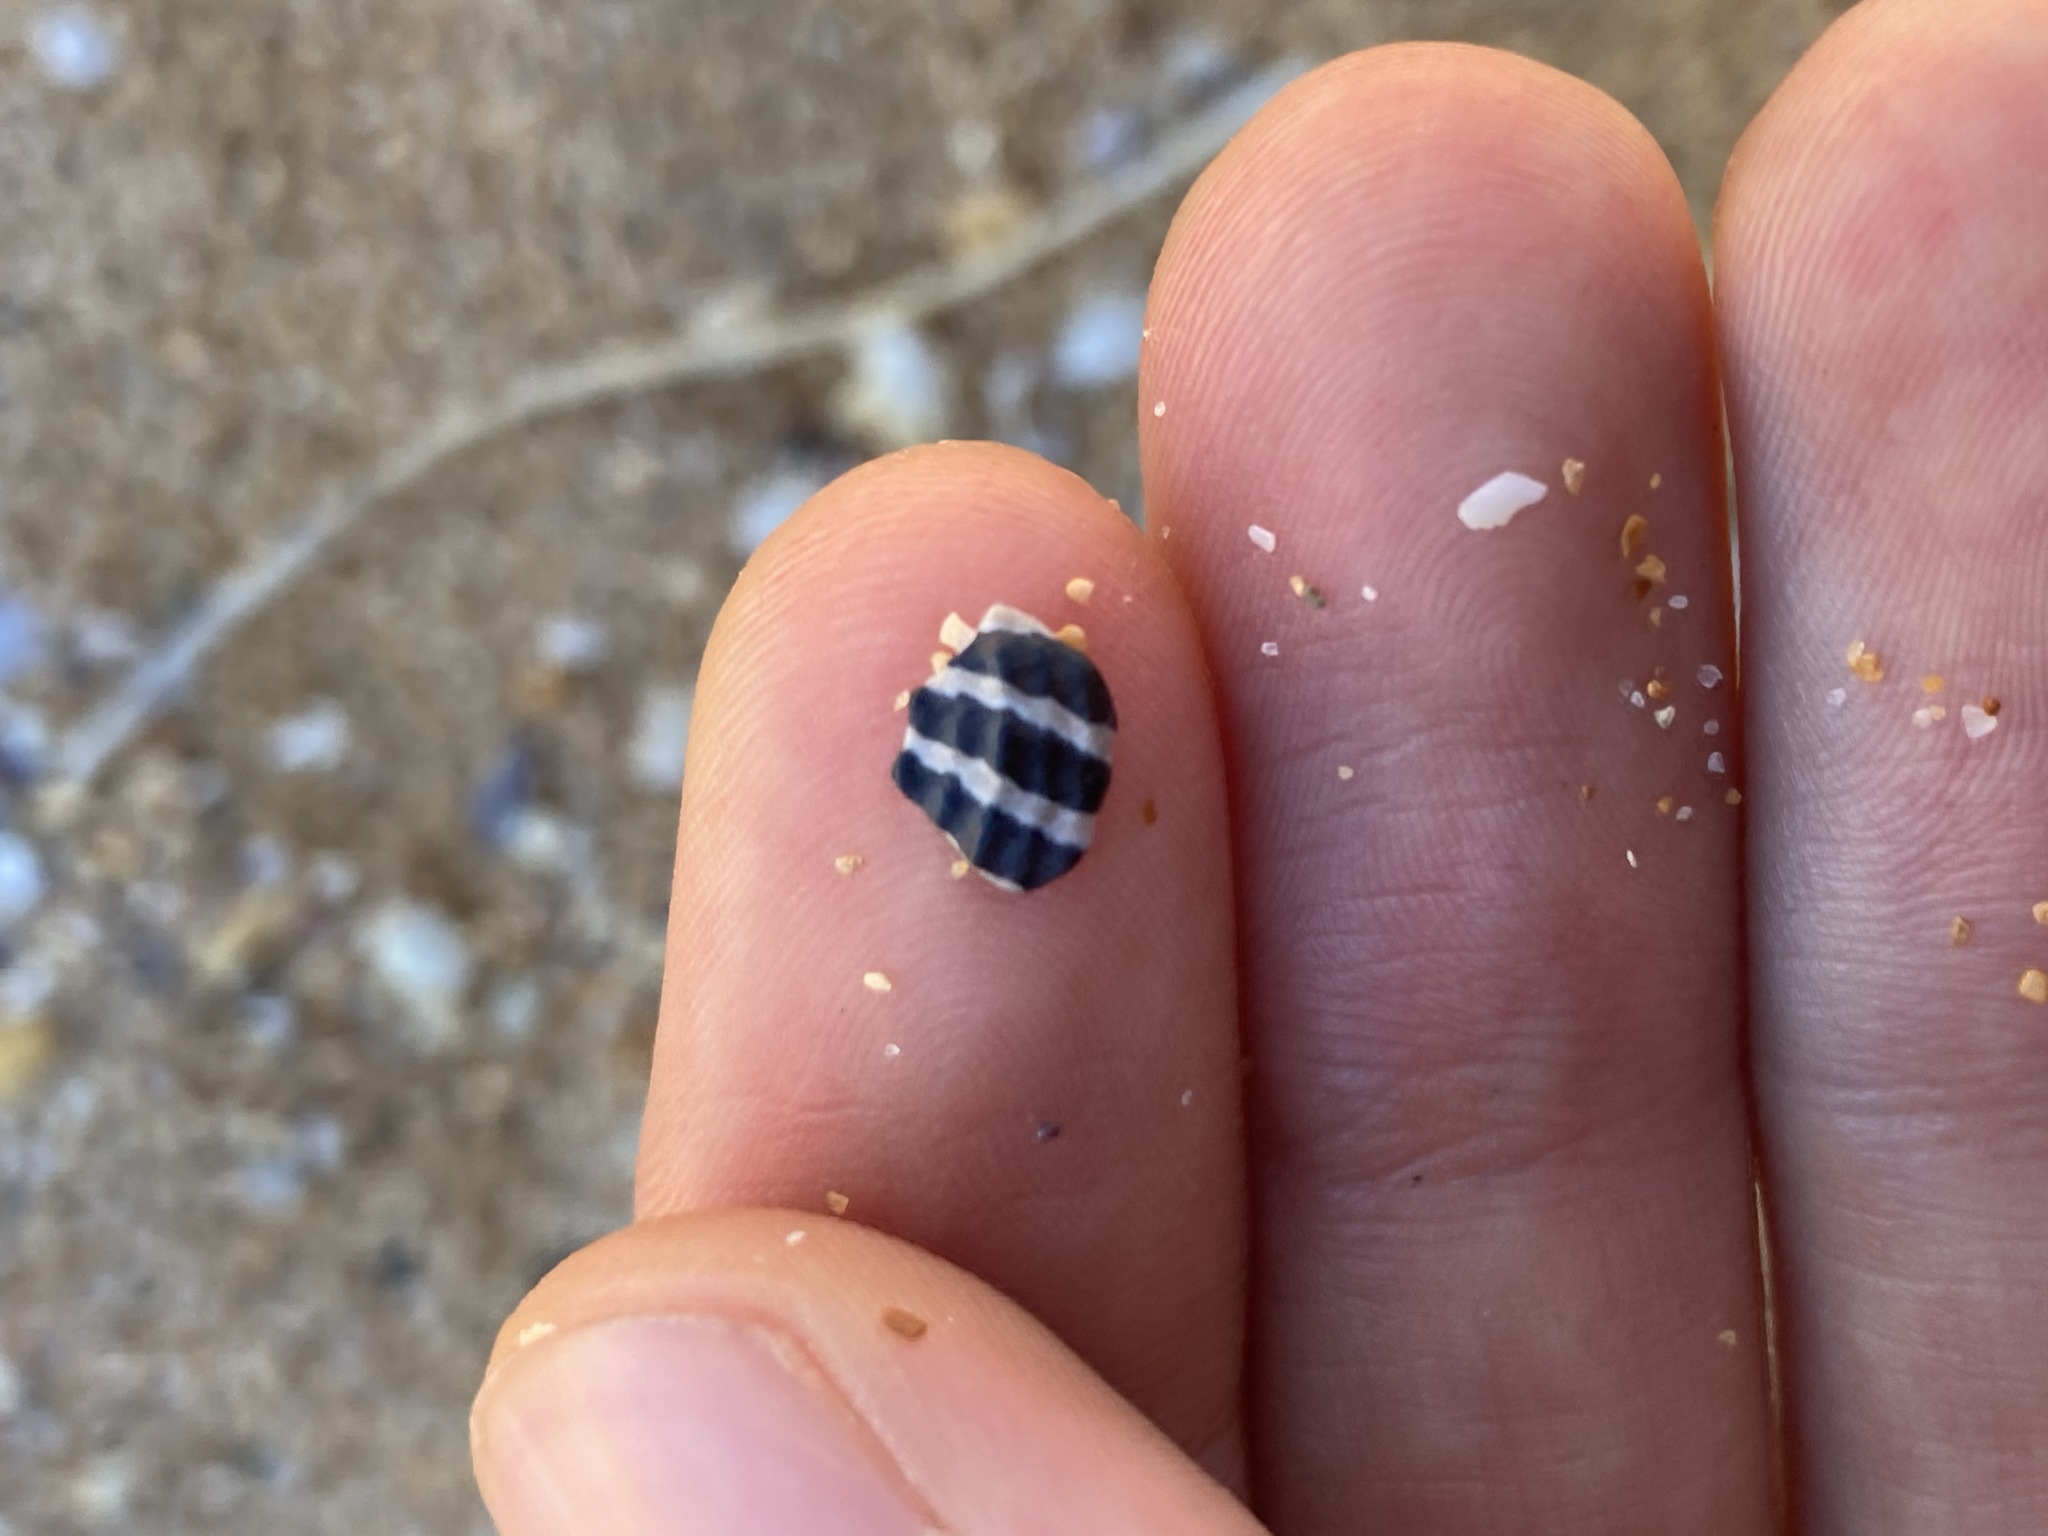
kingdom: Animalia
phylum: Mollusca
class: Gastropoda
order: Trochida
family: Trochidae
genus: Austrocochlea
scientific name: Austrocochlea porcata
